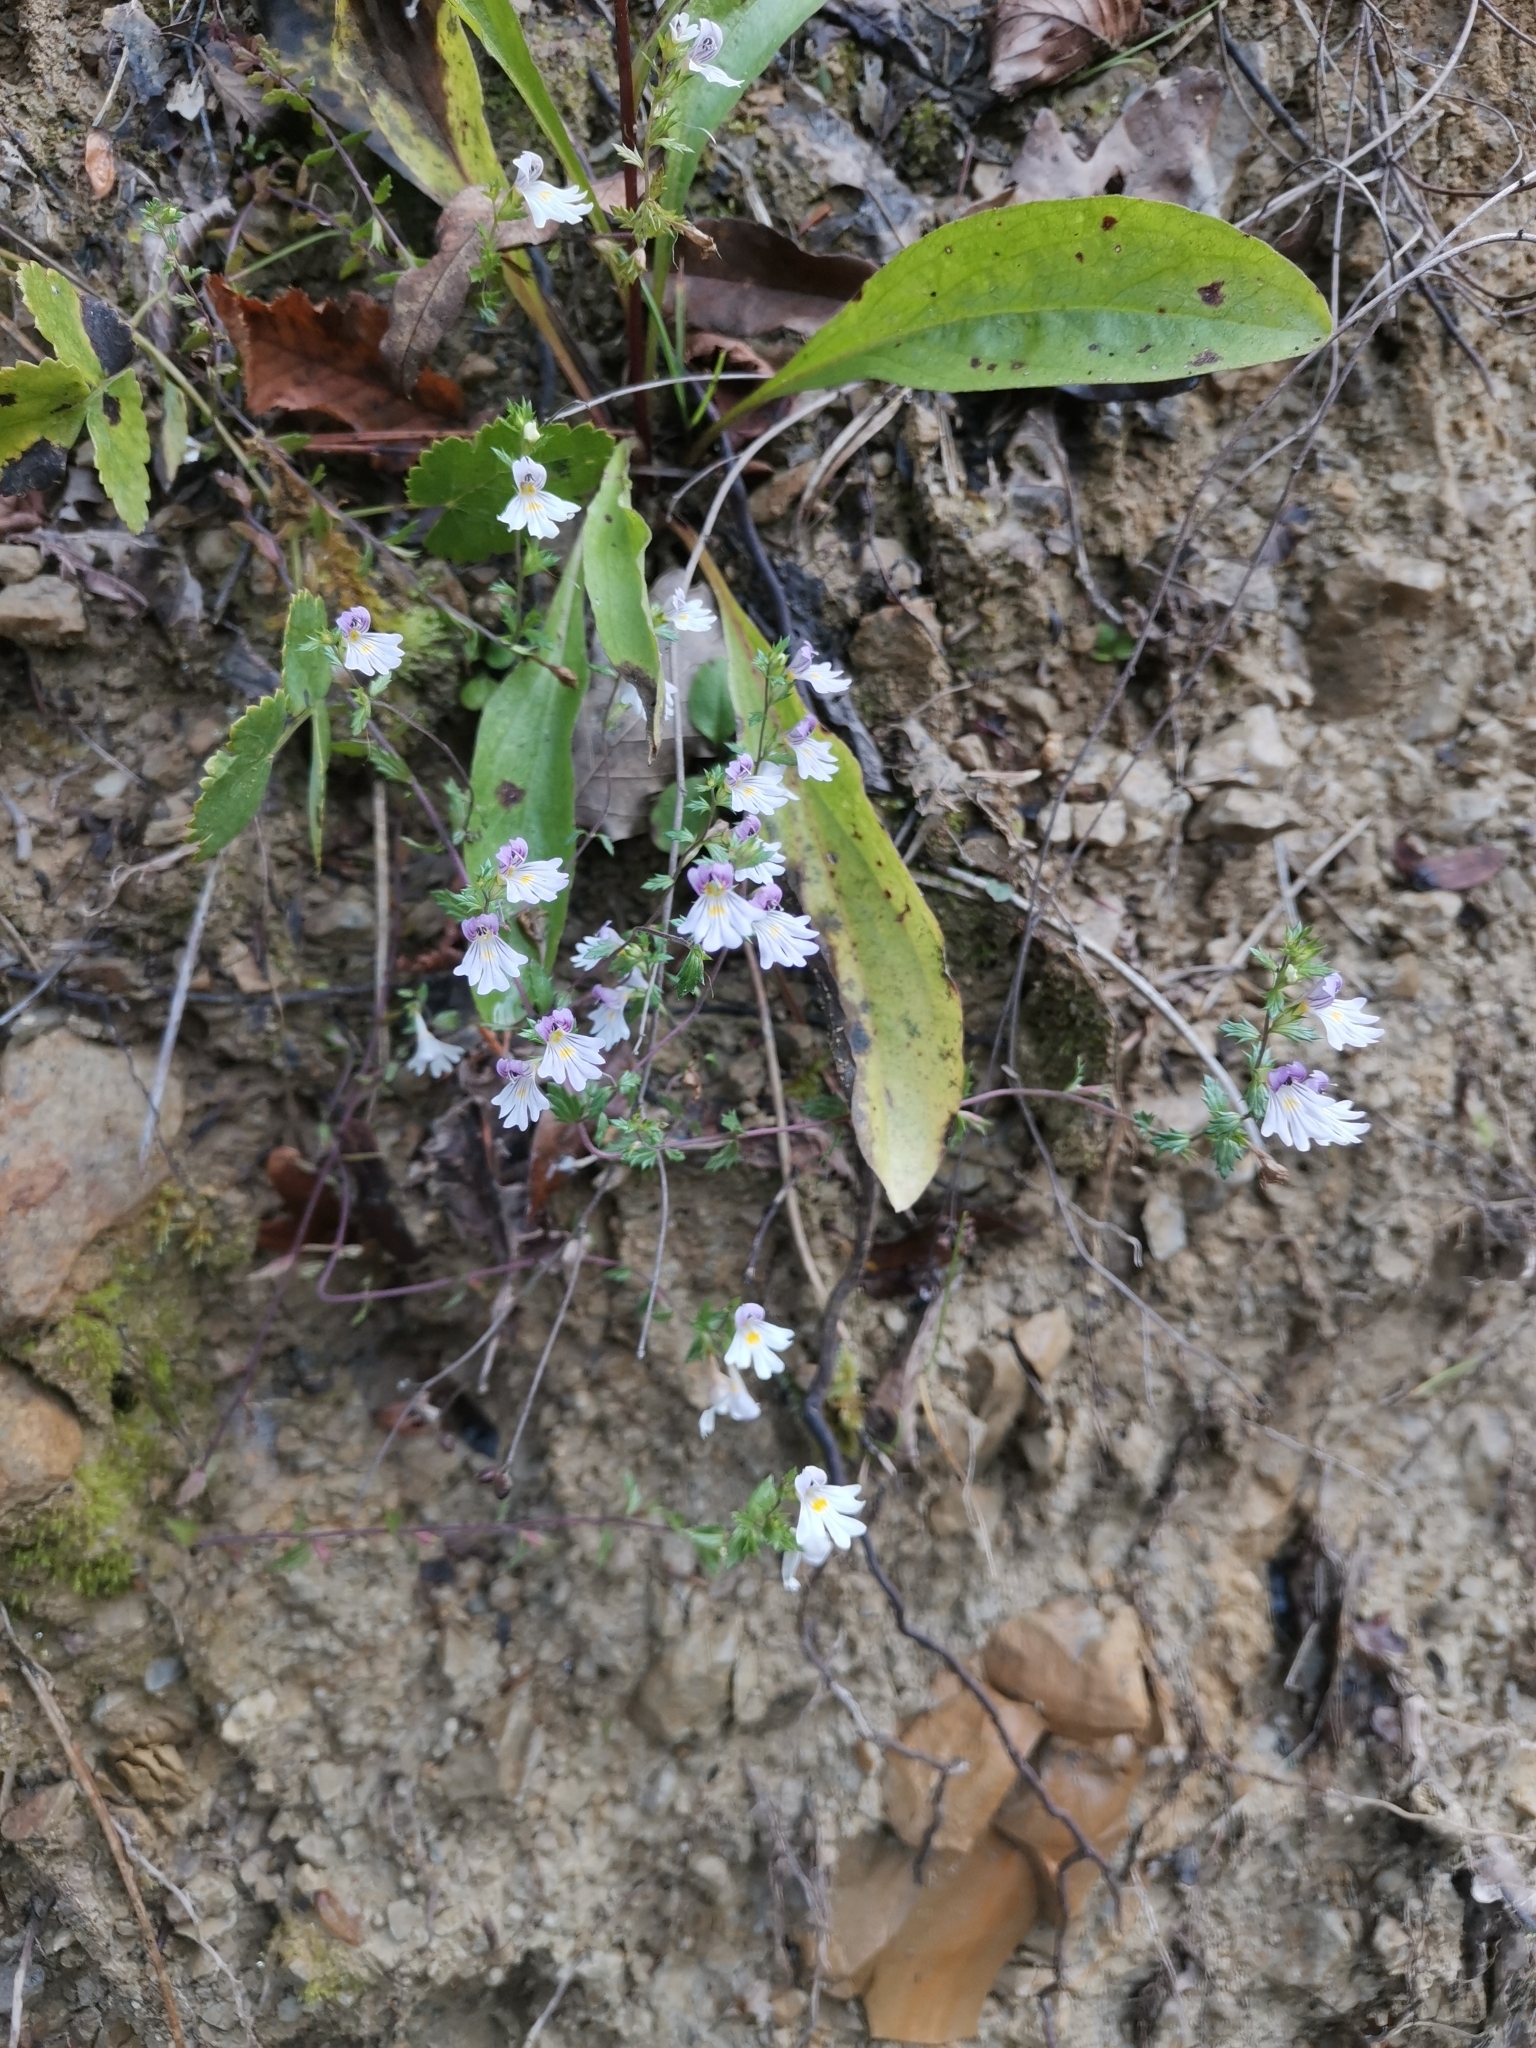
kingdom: Plantae
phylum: Tracheophyta
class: Magnoliopsida
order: Lamiales
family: Orobanchaceae
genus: Euphrasia
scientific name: Euphrasia marchesettii
